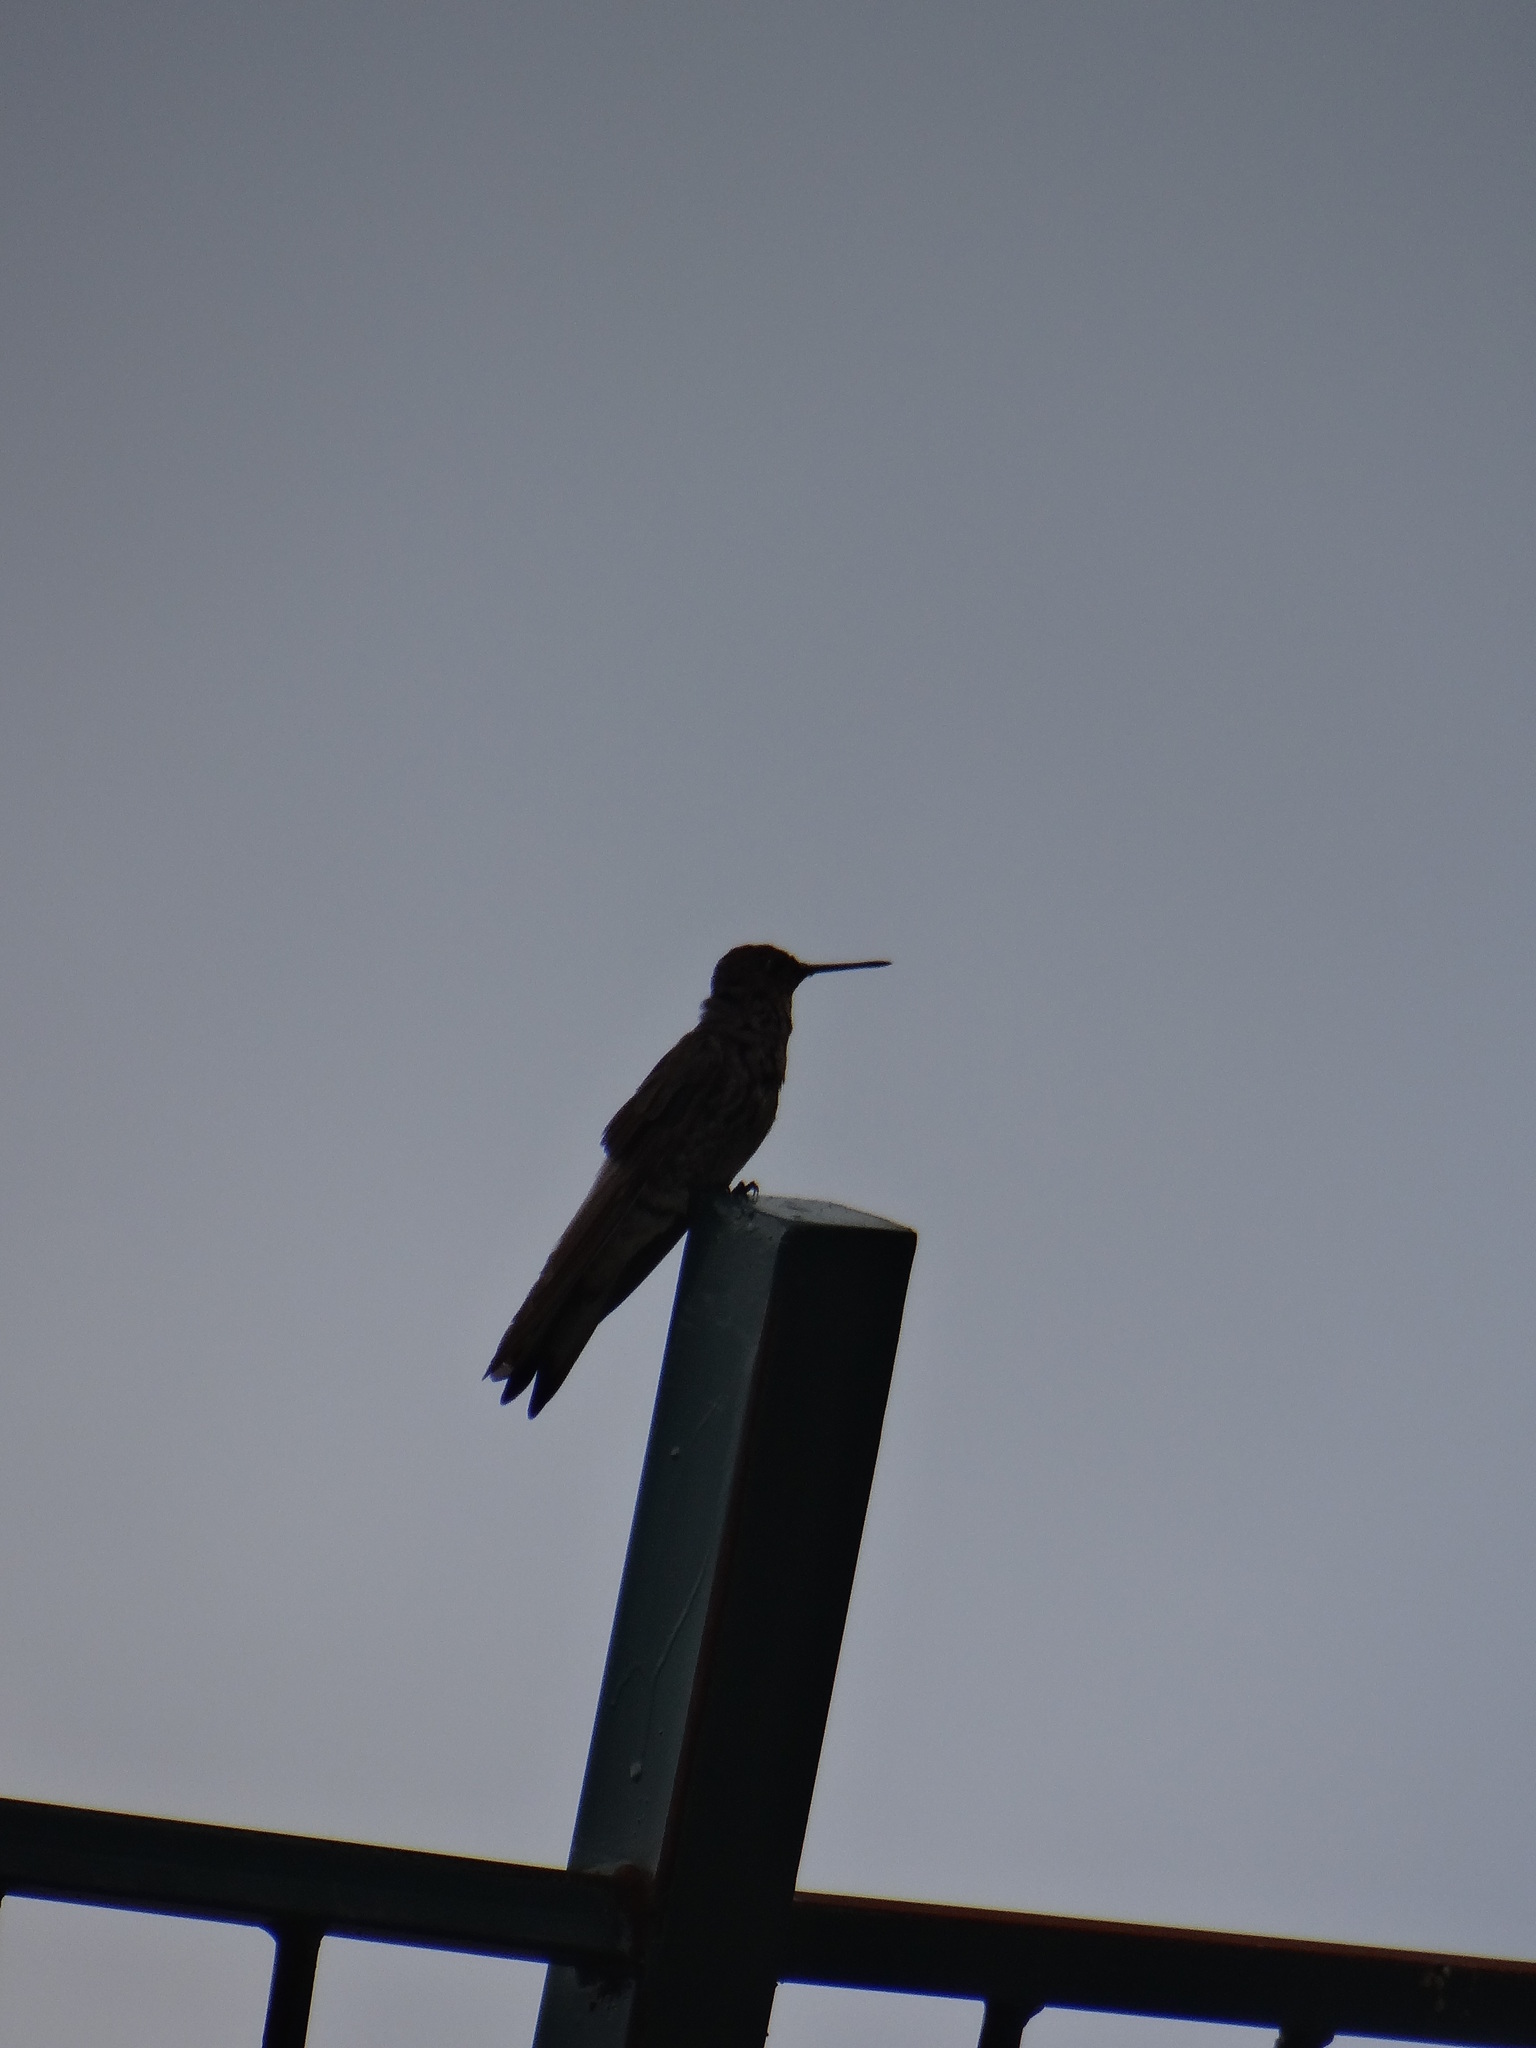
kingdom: Animalia
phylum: Chordata
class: Aves
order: Apodiformes
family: Trochilidae
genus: Patagona
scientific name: Patagona gigas
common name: Giant hummingbird
